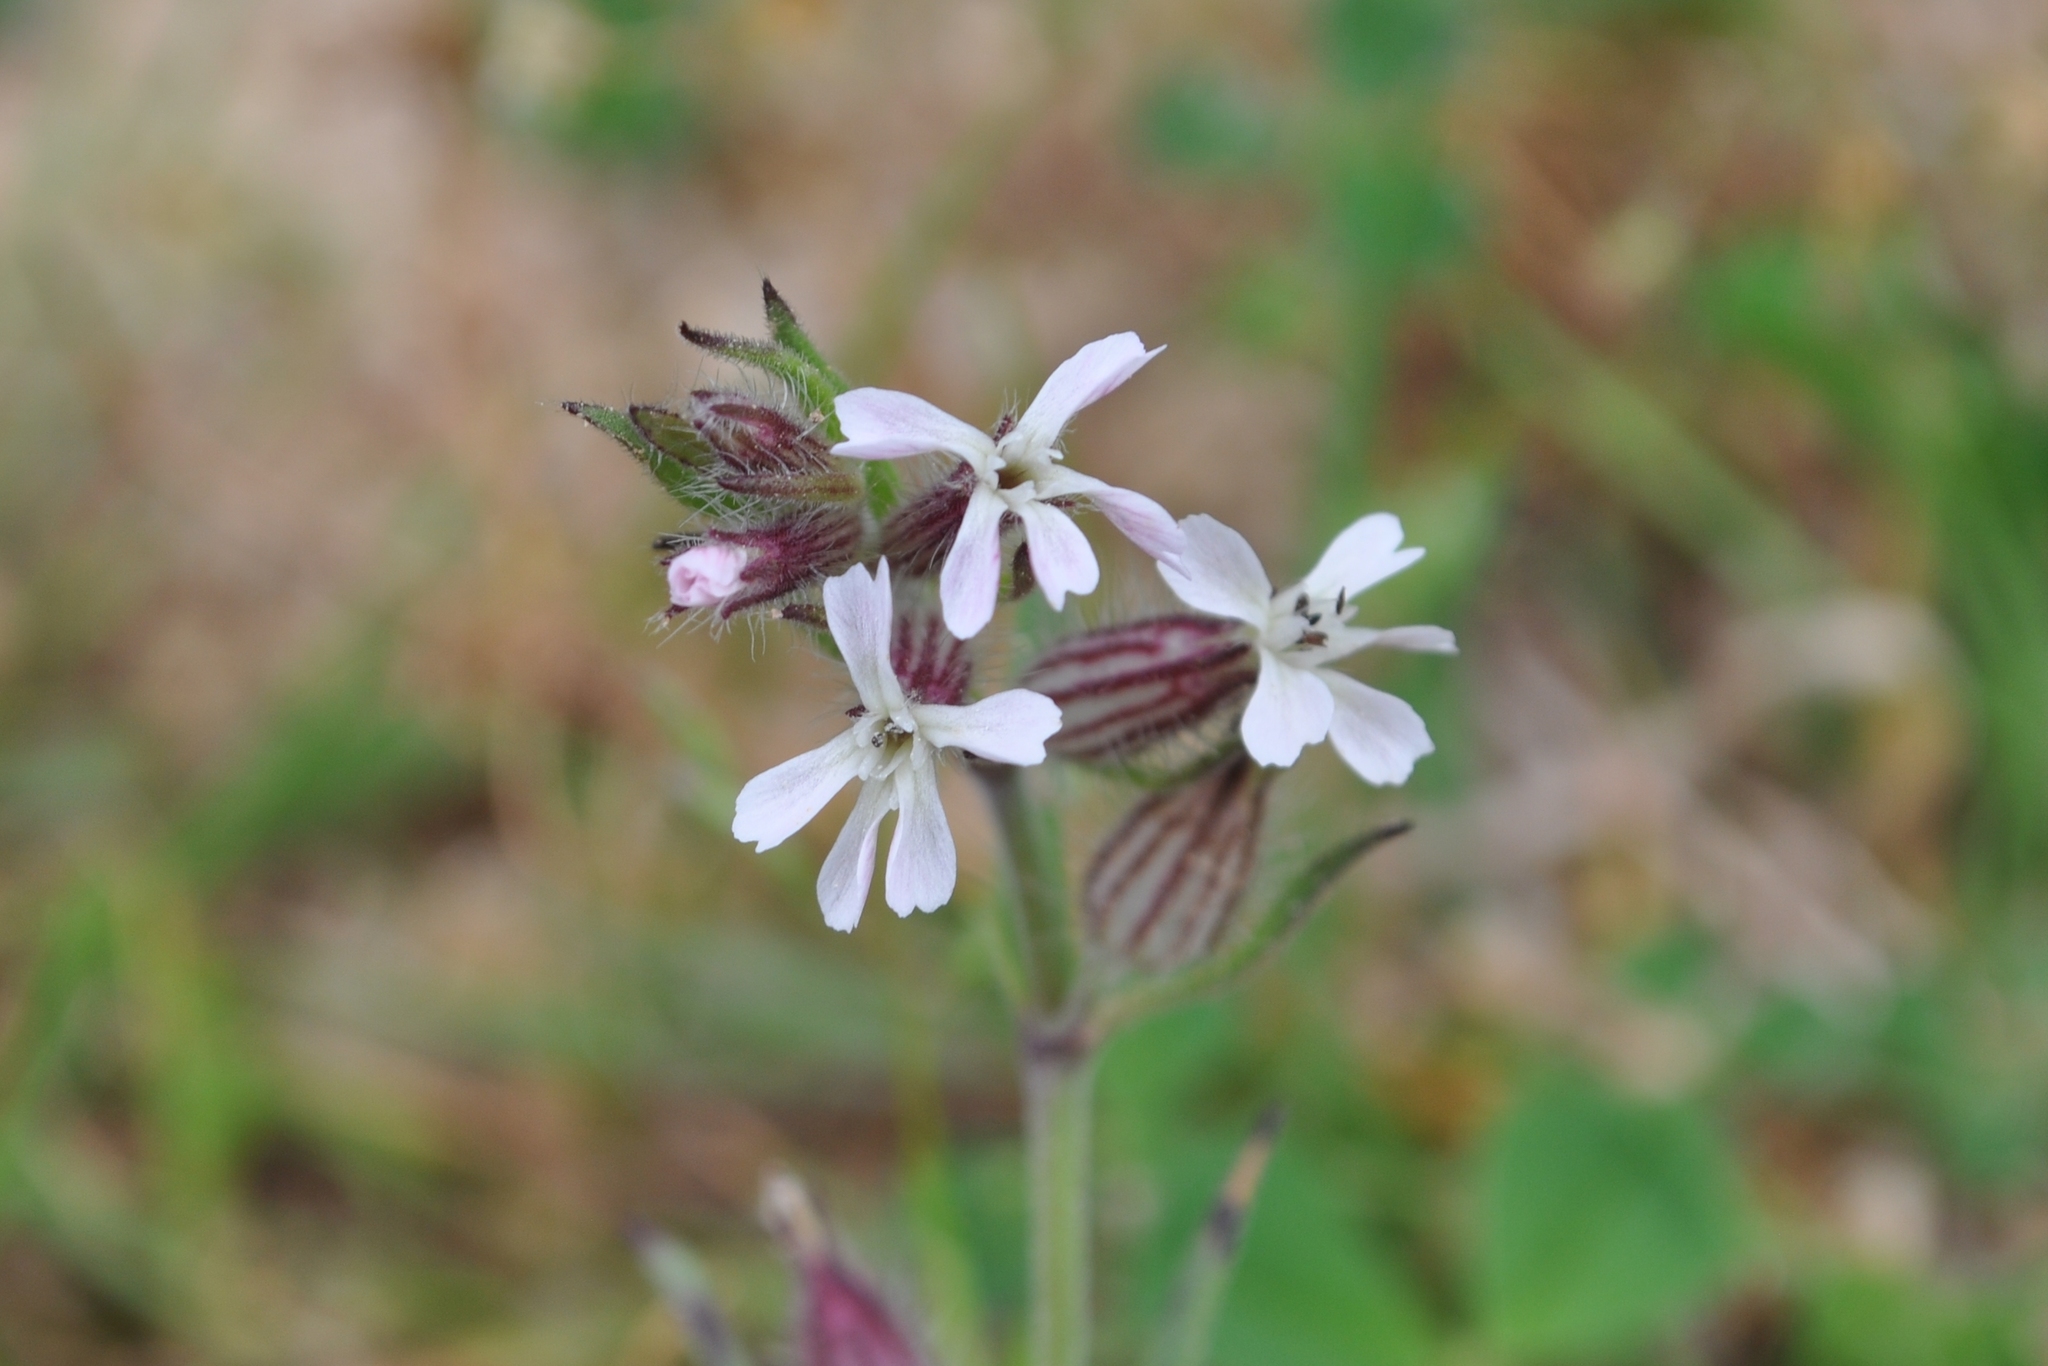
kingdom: Plantae
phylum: Tracheophyta
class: Magnoliopsida
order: Caryophyllales
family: Caryophyllaceae
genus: Silene
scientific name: Silene gallica
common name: Small-flowered catchfly
